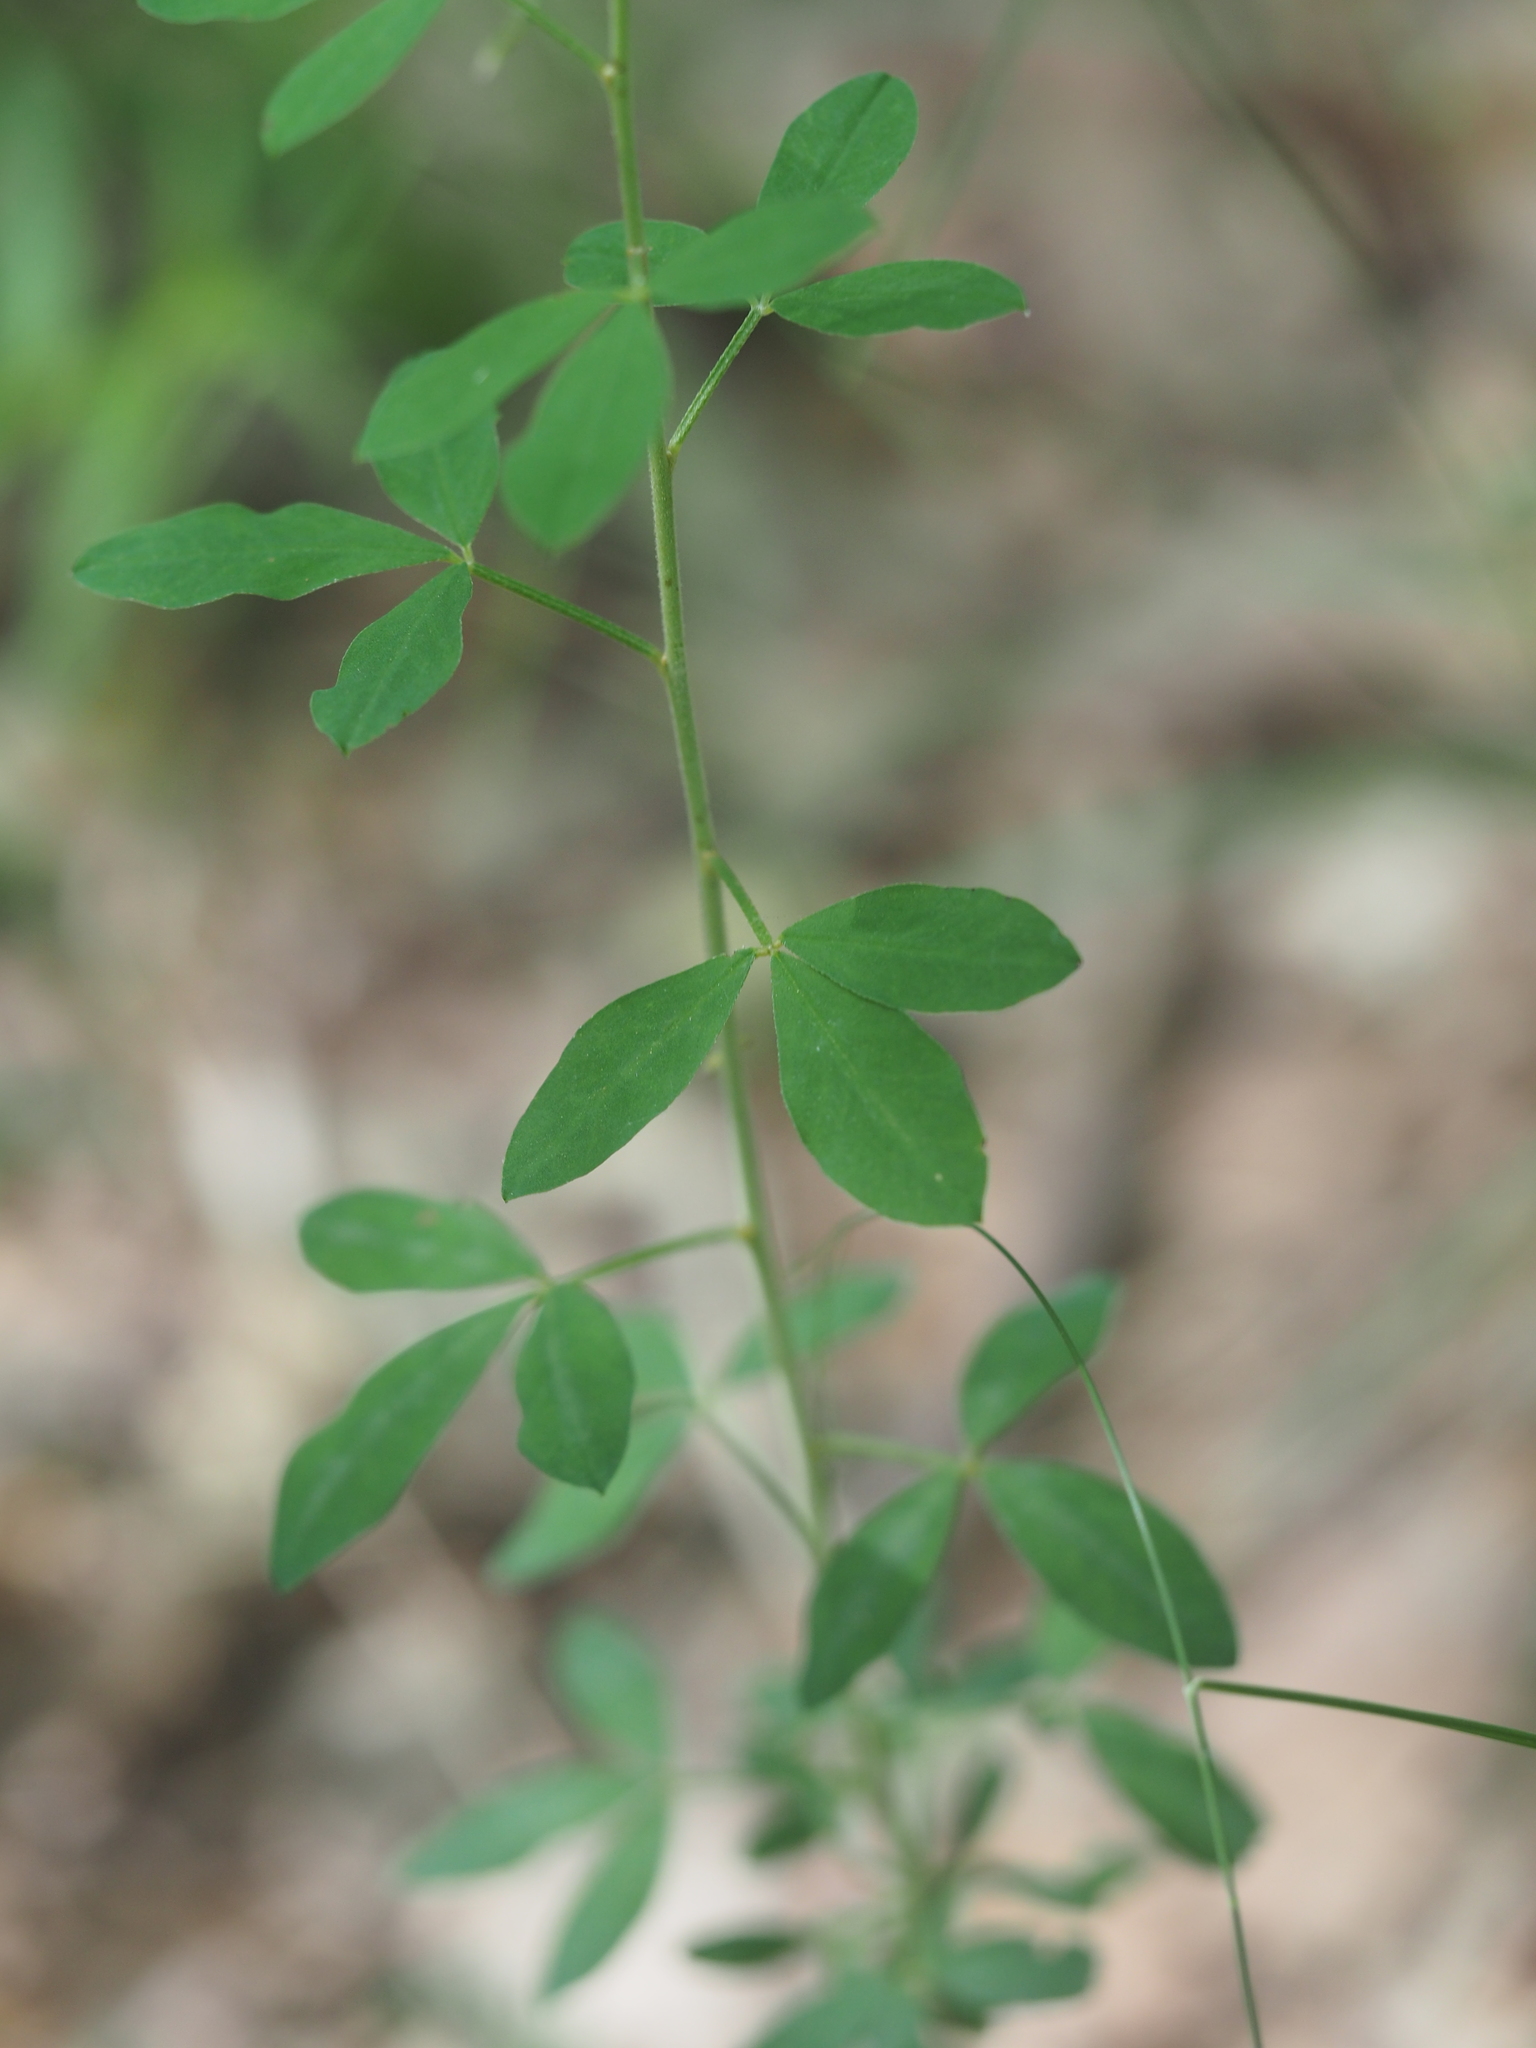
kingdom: Plantae
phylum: Tracheophyta
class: Magnoliopsida
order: Fabales
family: Fabaceae
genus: Cytisus
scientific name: Cytisus nigricans
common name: Black broom
